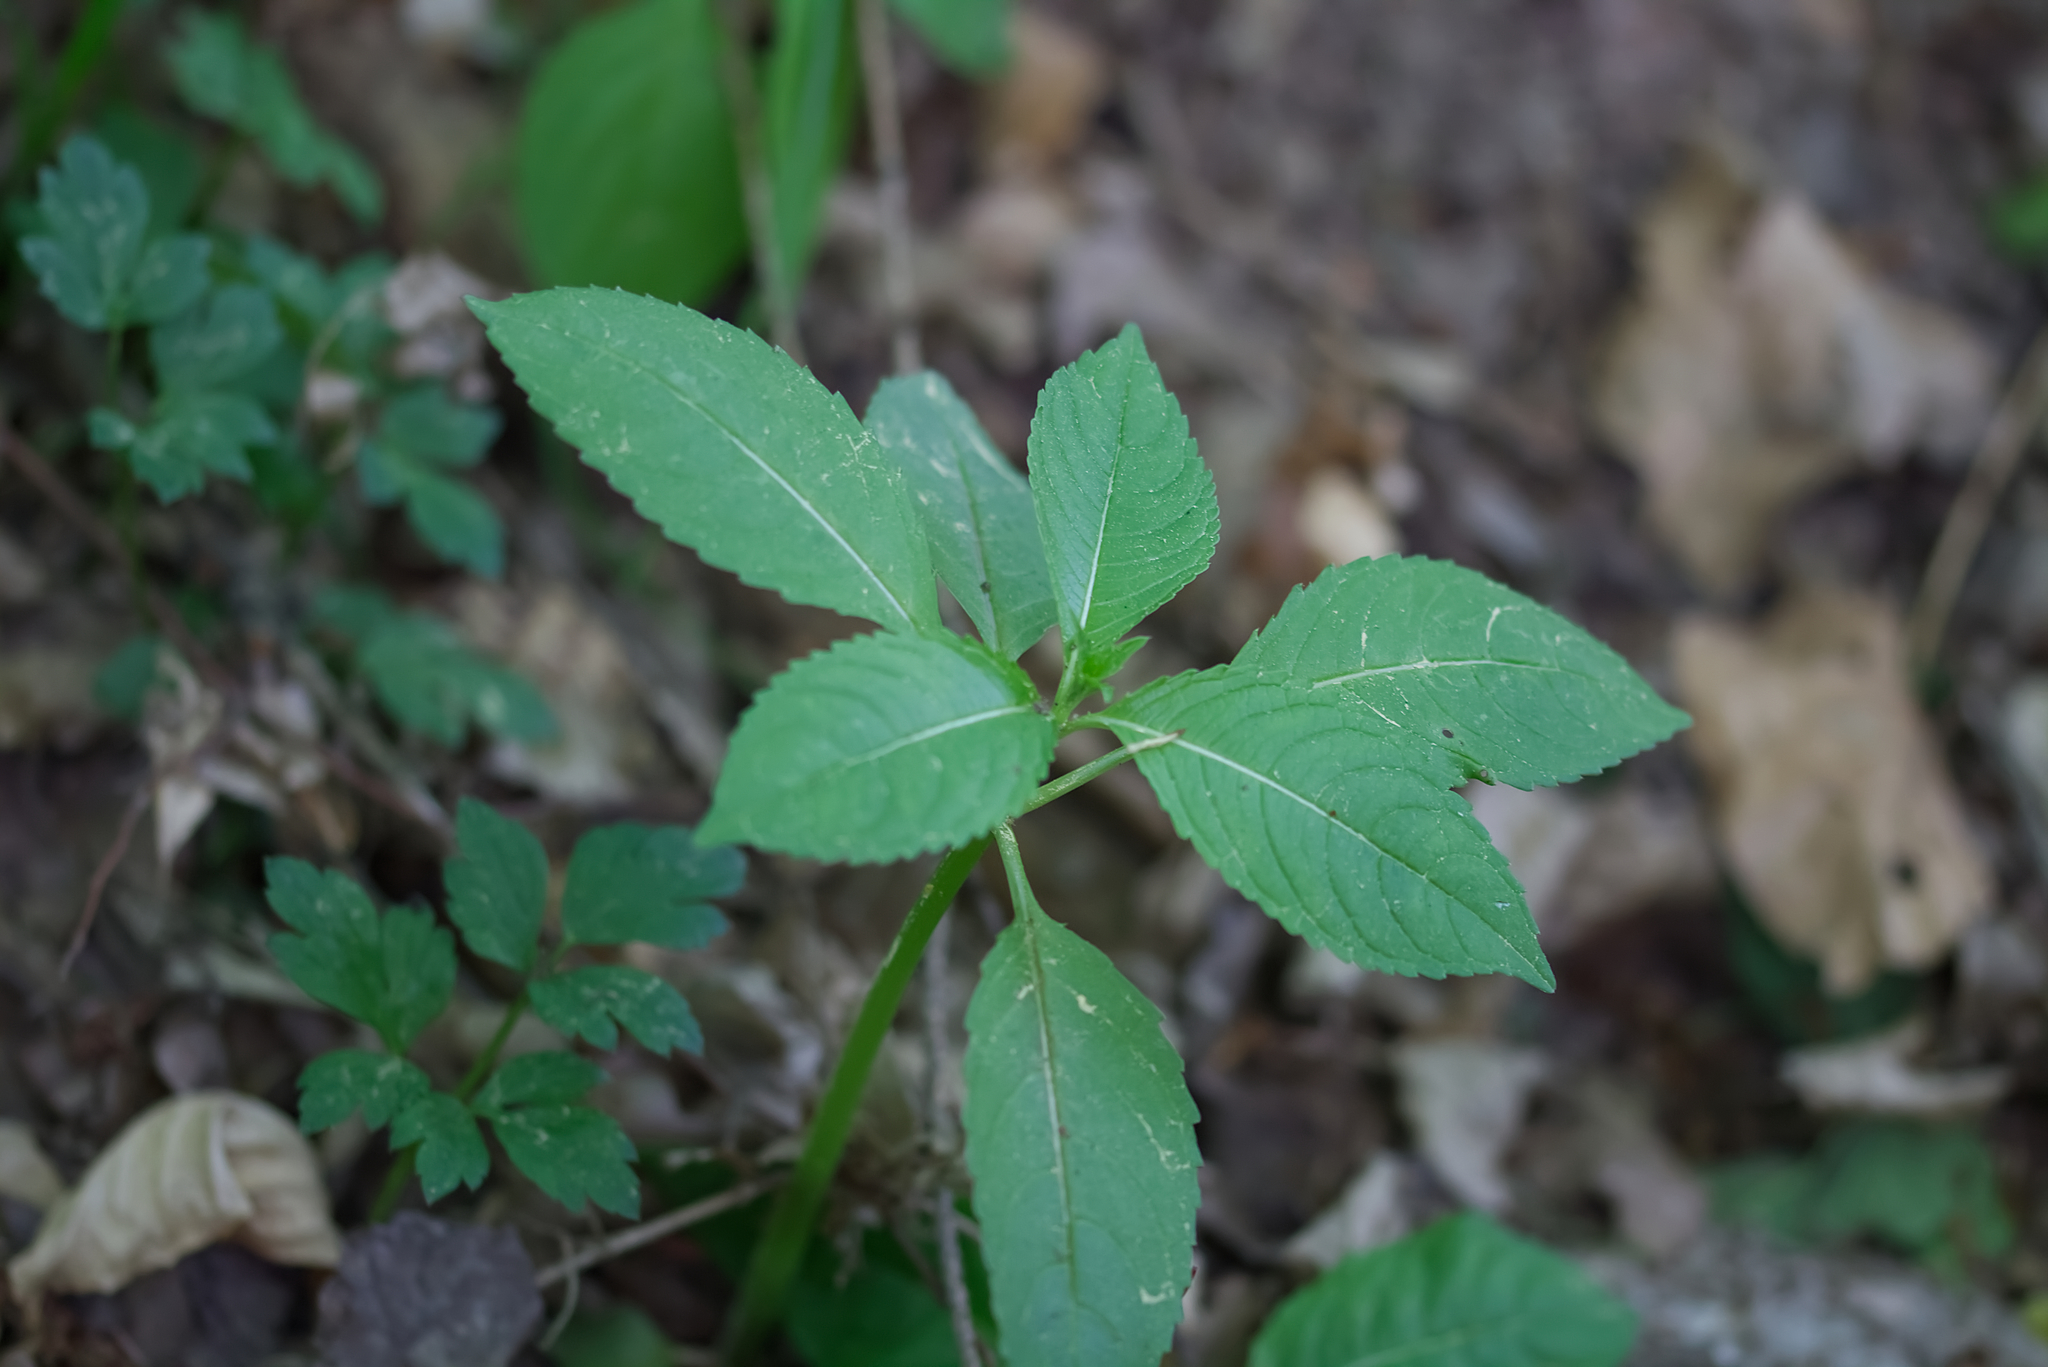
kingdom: Plantae
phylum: Tracheophyta
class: Magnoliopsida
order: Ericales
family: Balsaminaceae
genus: Impatiens
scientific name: Impatiens glandulifera
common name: Himalayan balsam
